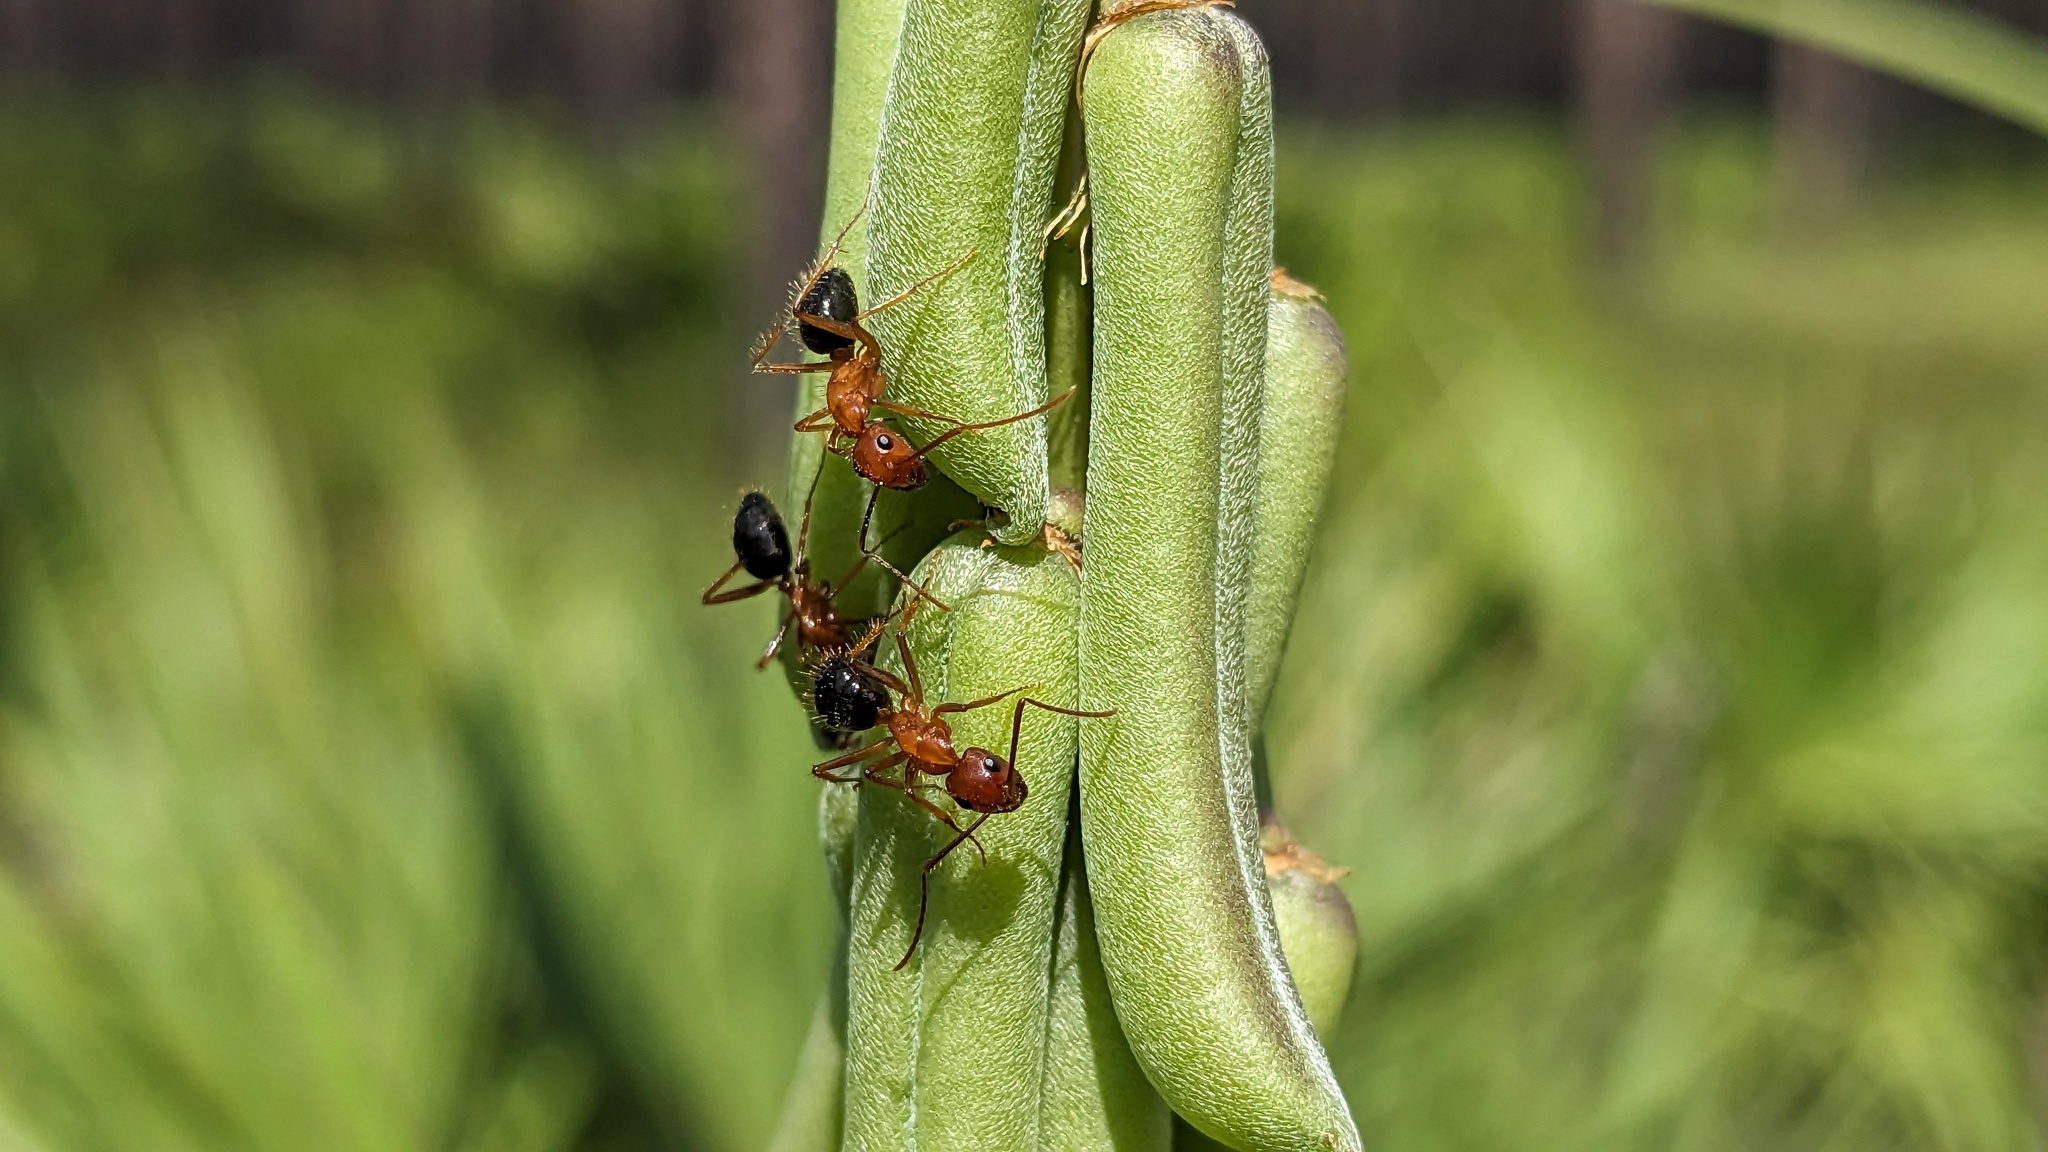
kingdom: Animalia
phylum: Arthropoda
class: Insecta
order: Hymenoptera
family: Formicidae
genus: Camponotus
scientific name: Camponotus floridanus
